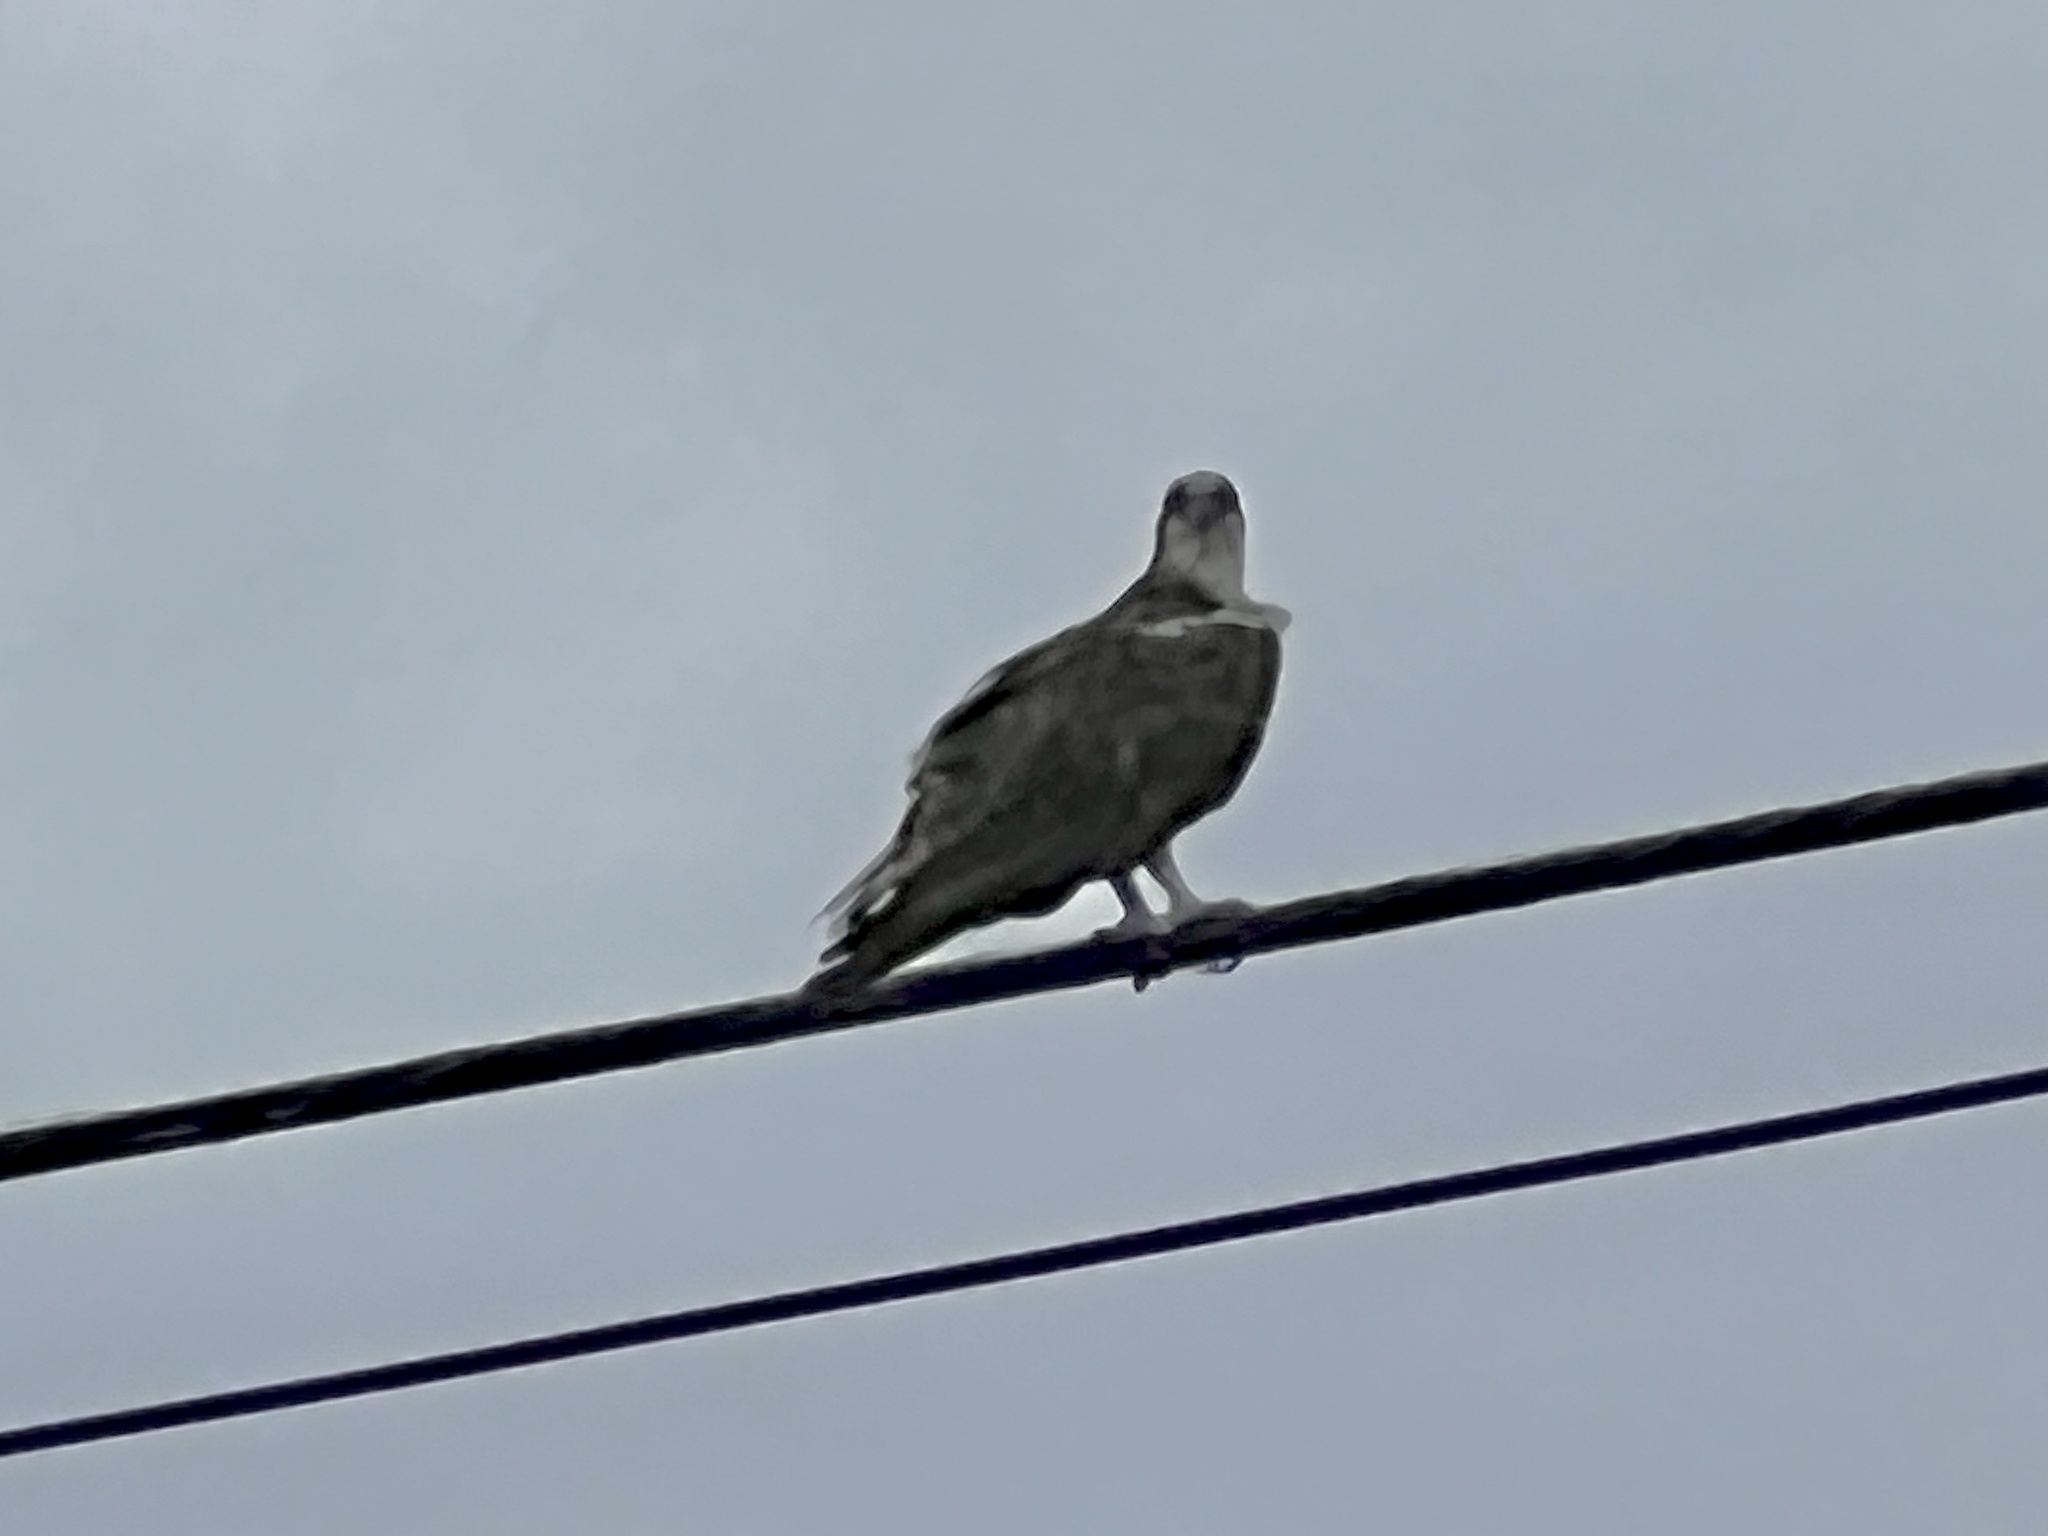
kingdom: Animalia
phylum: Chordata
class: Aves
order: Accipitriformes
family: Pandionidae
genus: Pandion
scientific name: Pandion haliaetus
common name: Osprey
